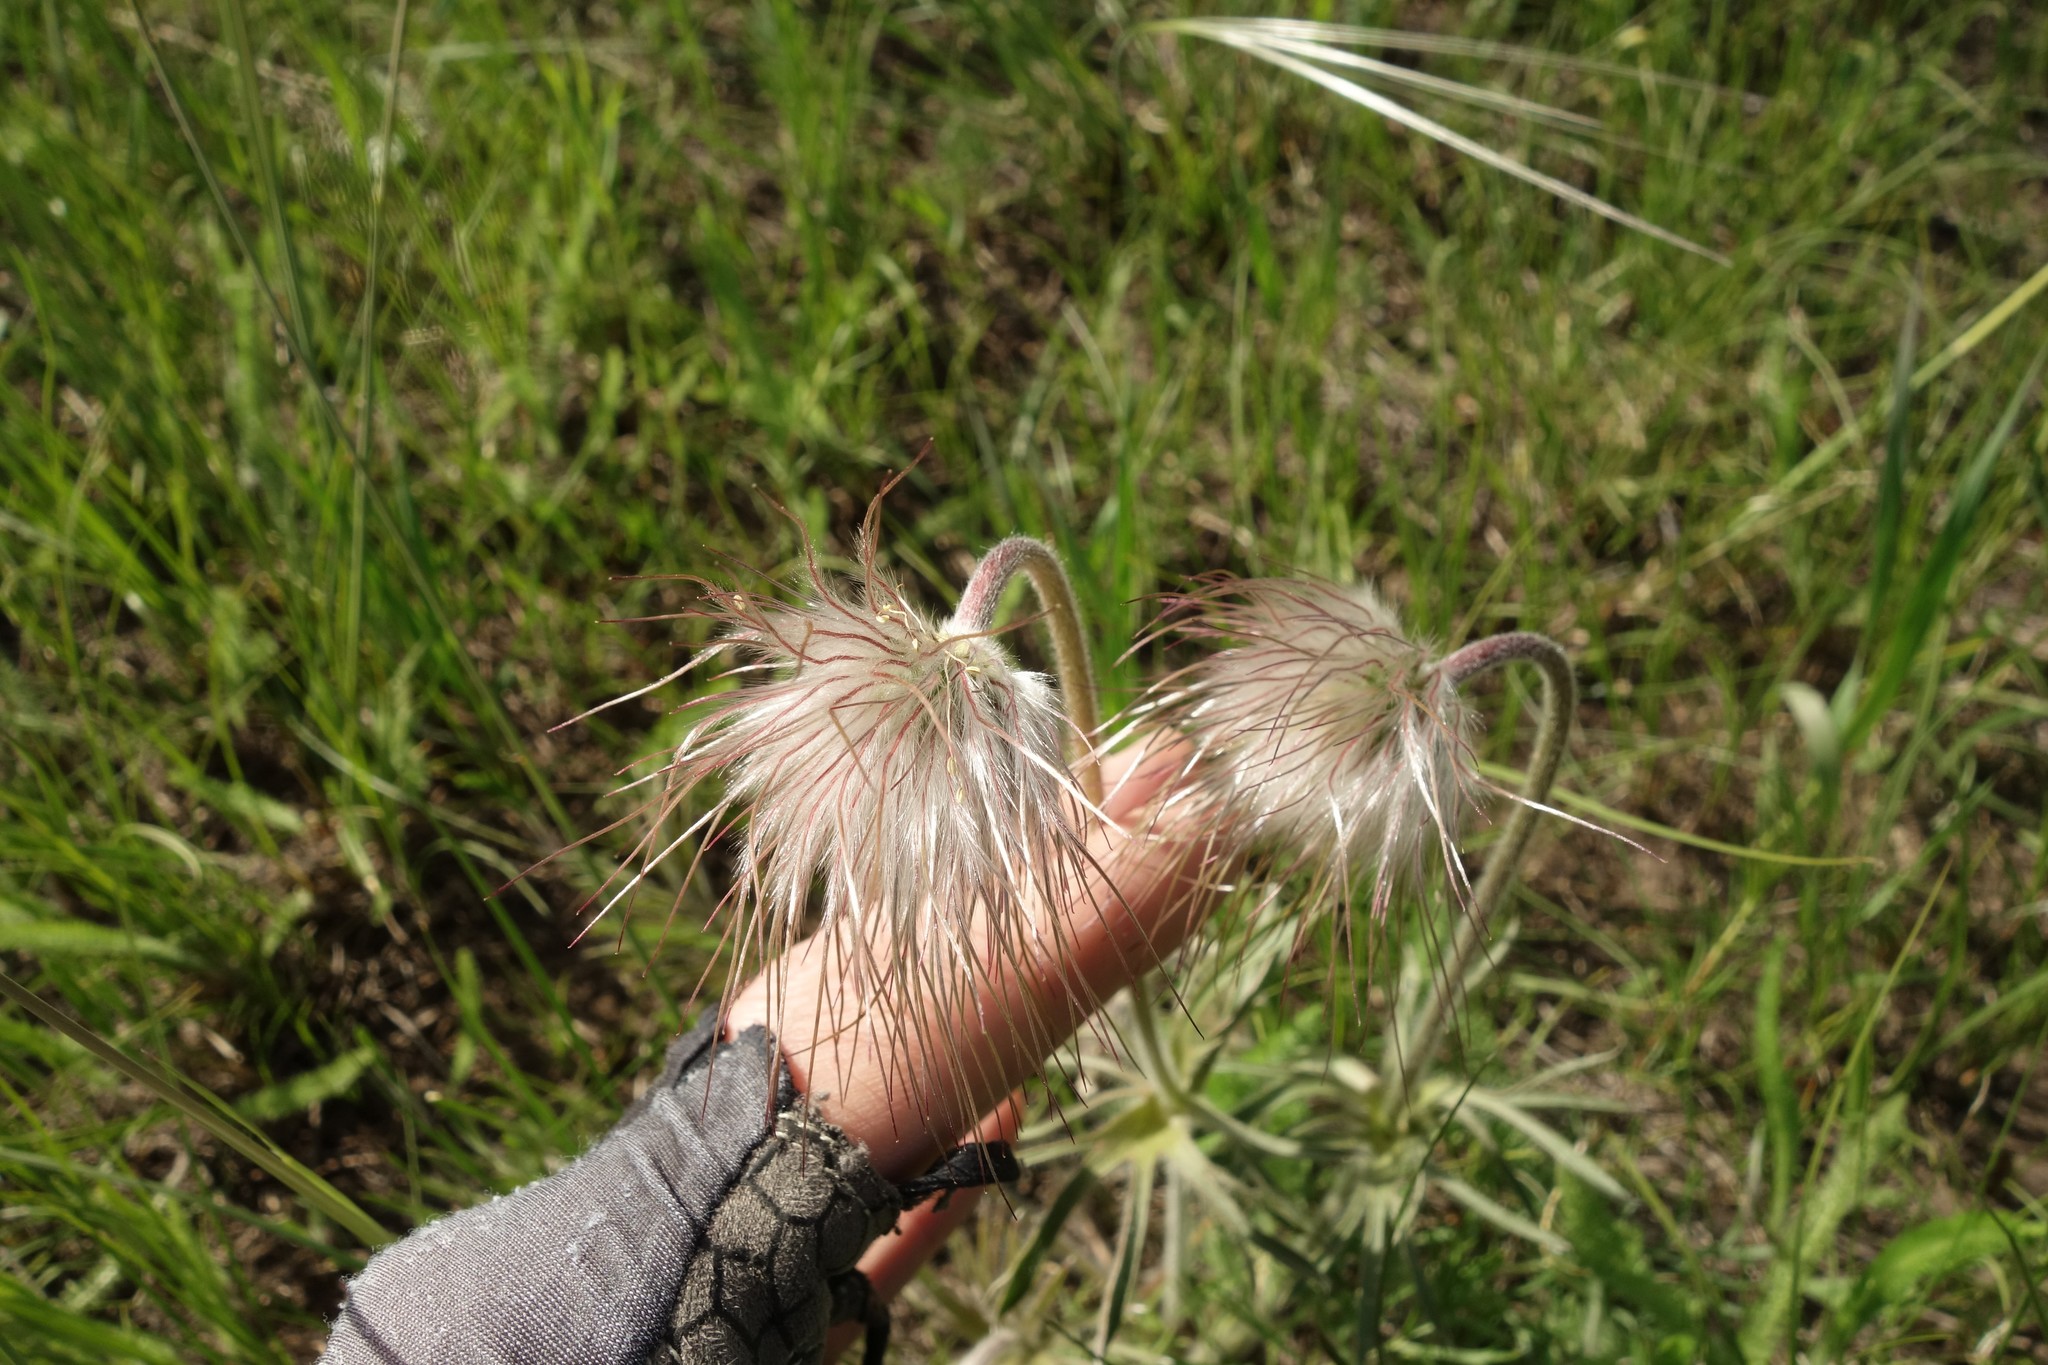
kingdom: Plantae
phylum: Tracheophyta
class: Magnoliopsida
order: Ranunculales
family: Ranunculaceae
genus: Pulsatilla
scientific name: Pulsatilla pratensis
